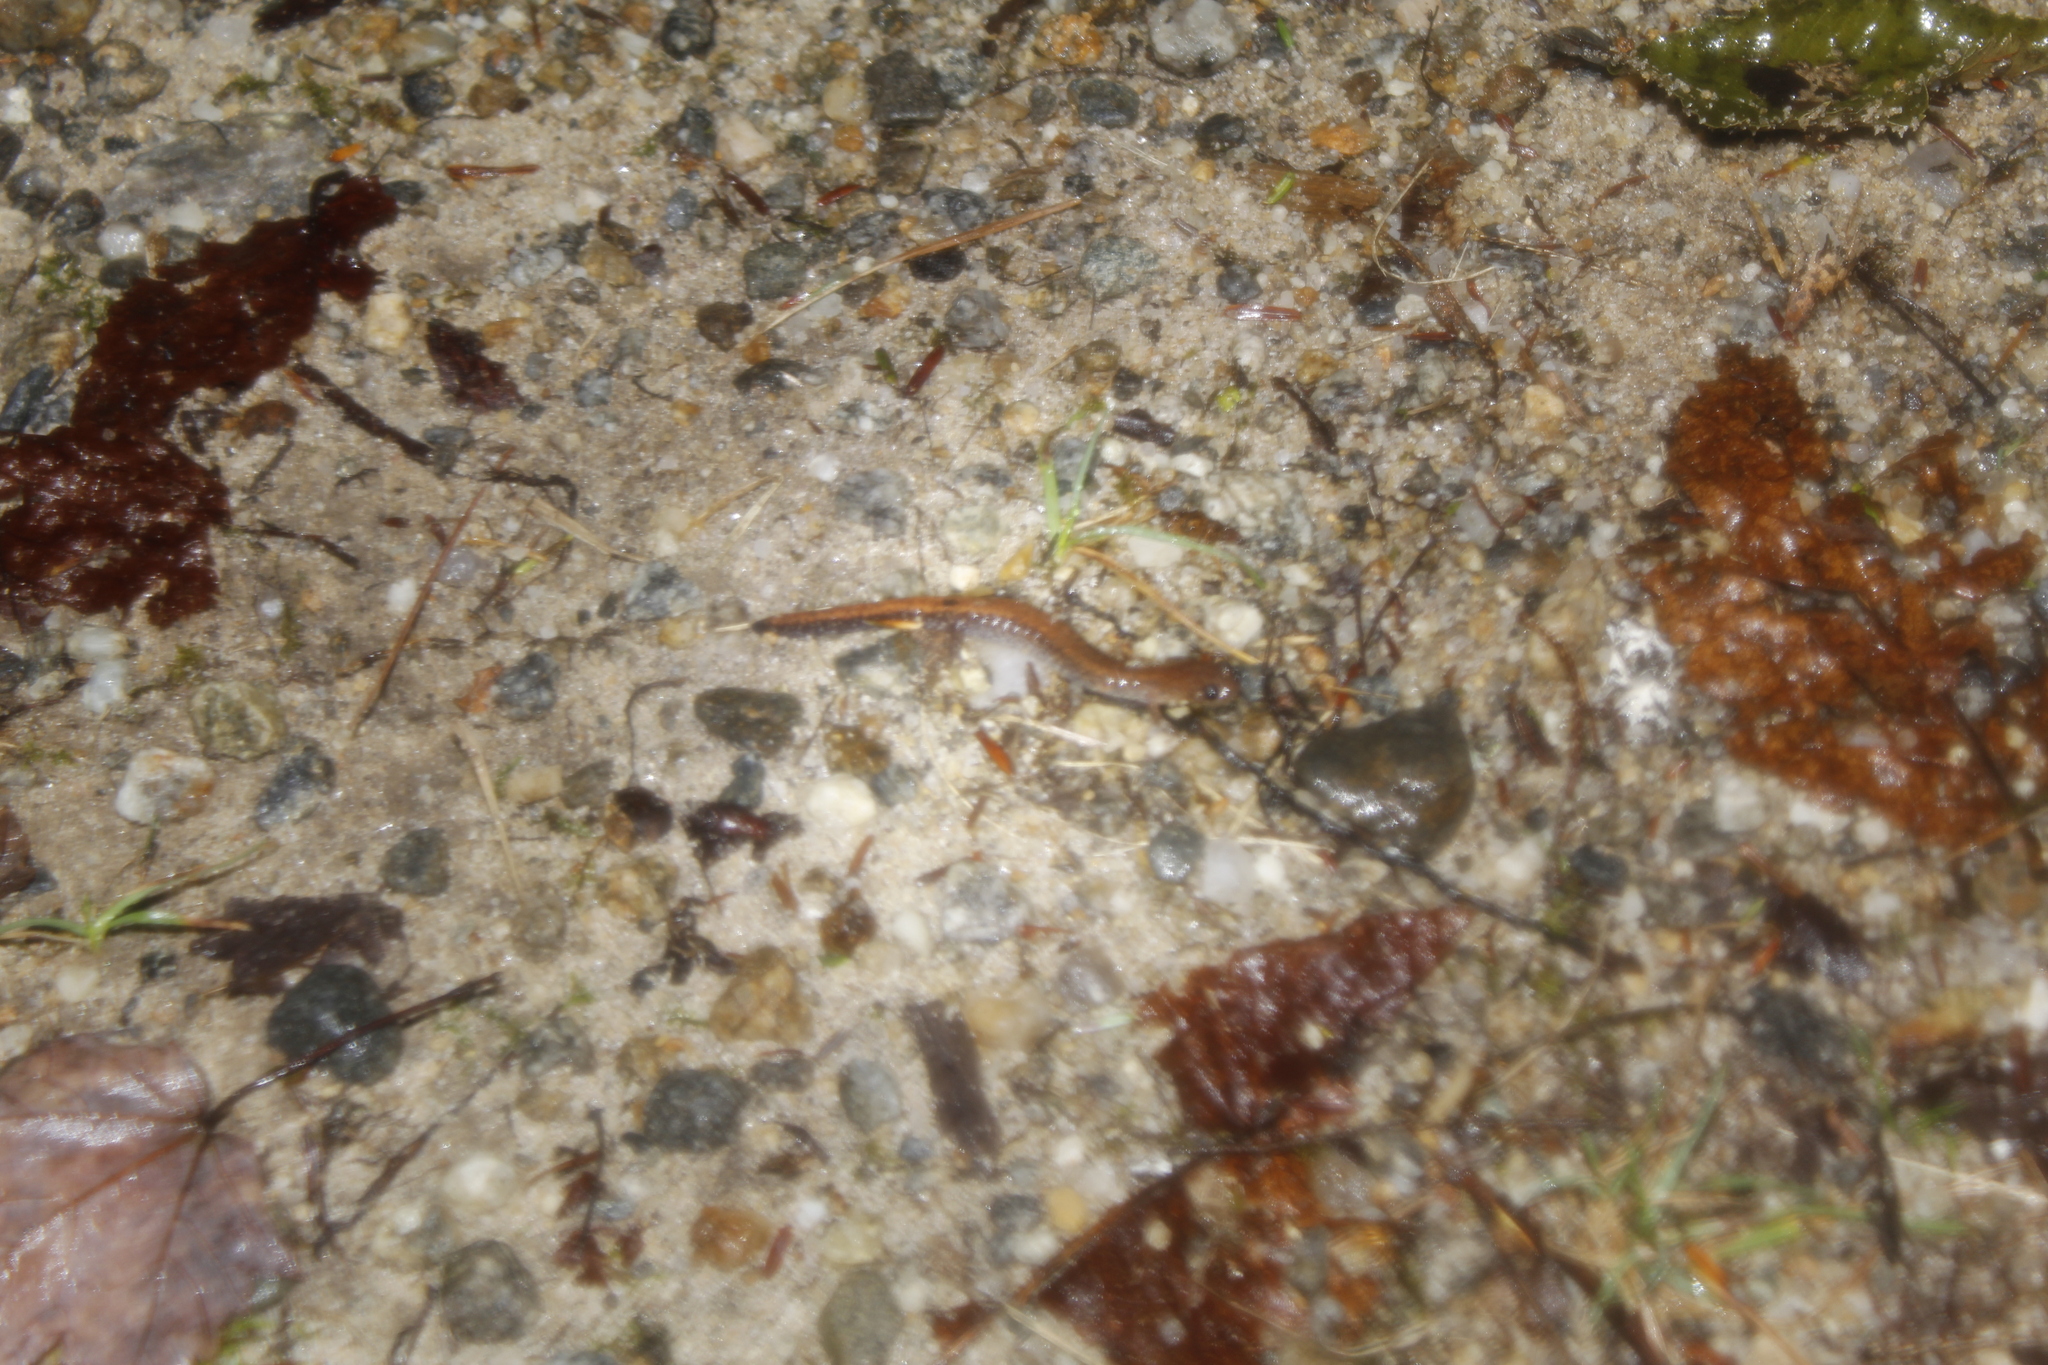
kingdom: Animalia
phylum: Chordata
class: Amphibia
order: Caudata
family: Plethodontidae
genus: Plethodon
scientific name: Plethodon cinereus
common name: Redback salamander
